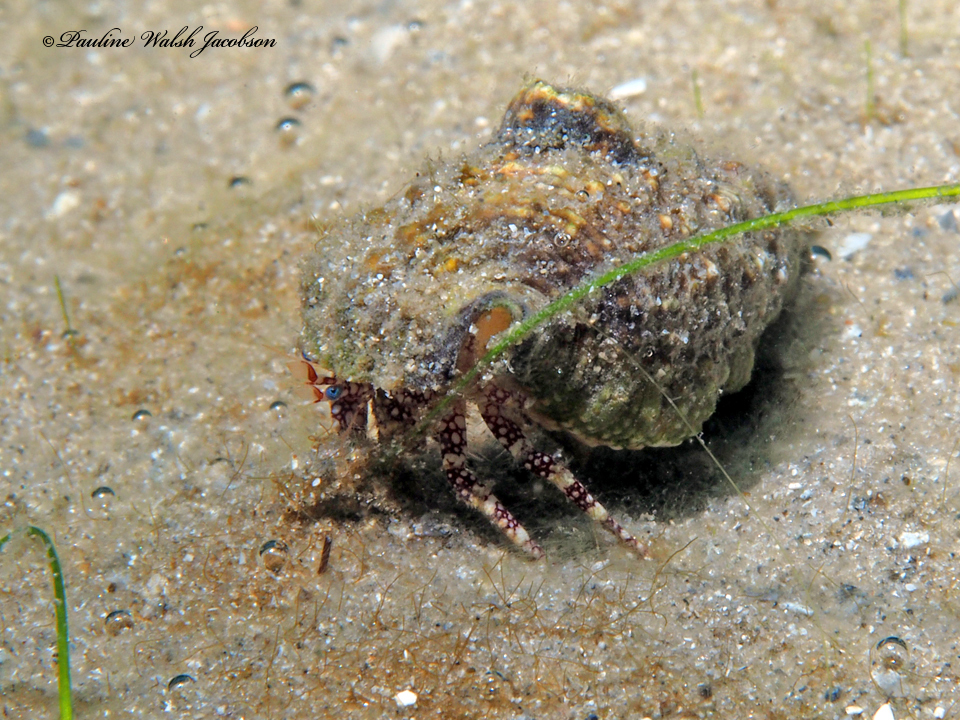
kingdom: Animalia
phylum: Arthropoda
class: Malacostraca
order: Decapoda
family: Diogenidae
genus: Paguristes
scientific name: Paguristes puncticeps
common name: White speckled hermit
